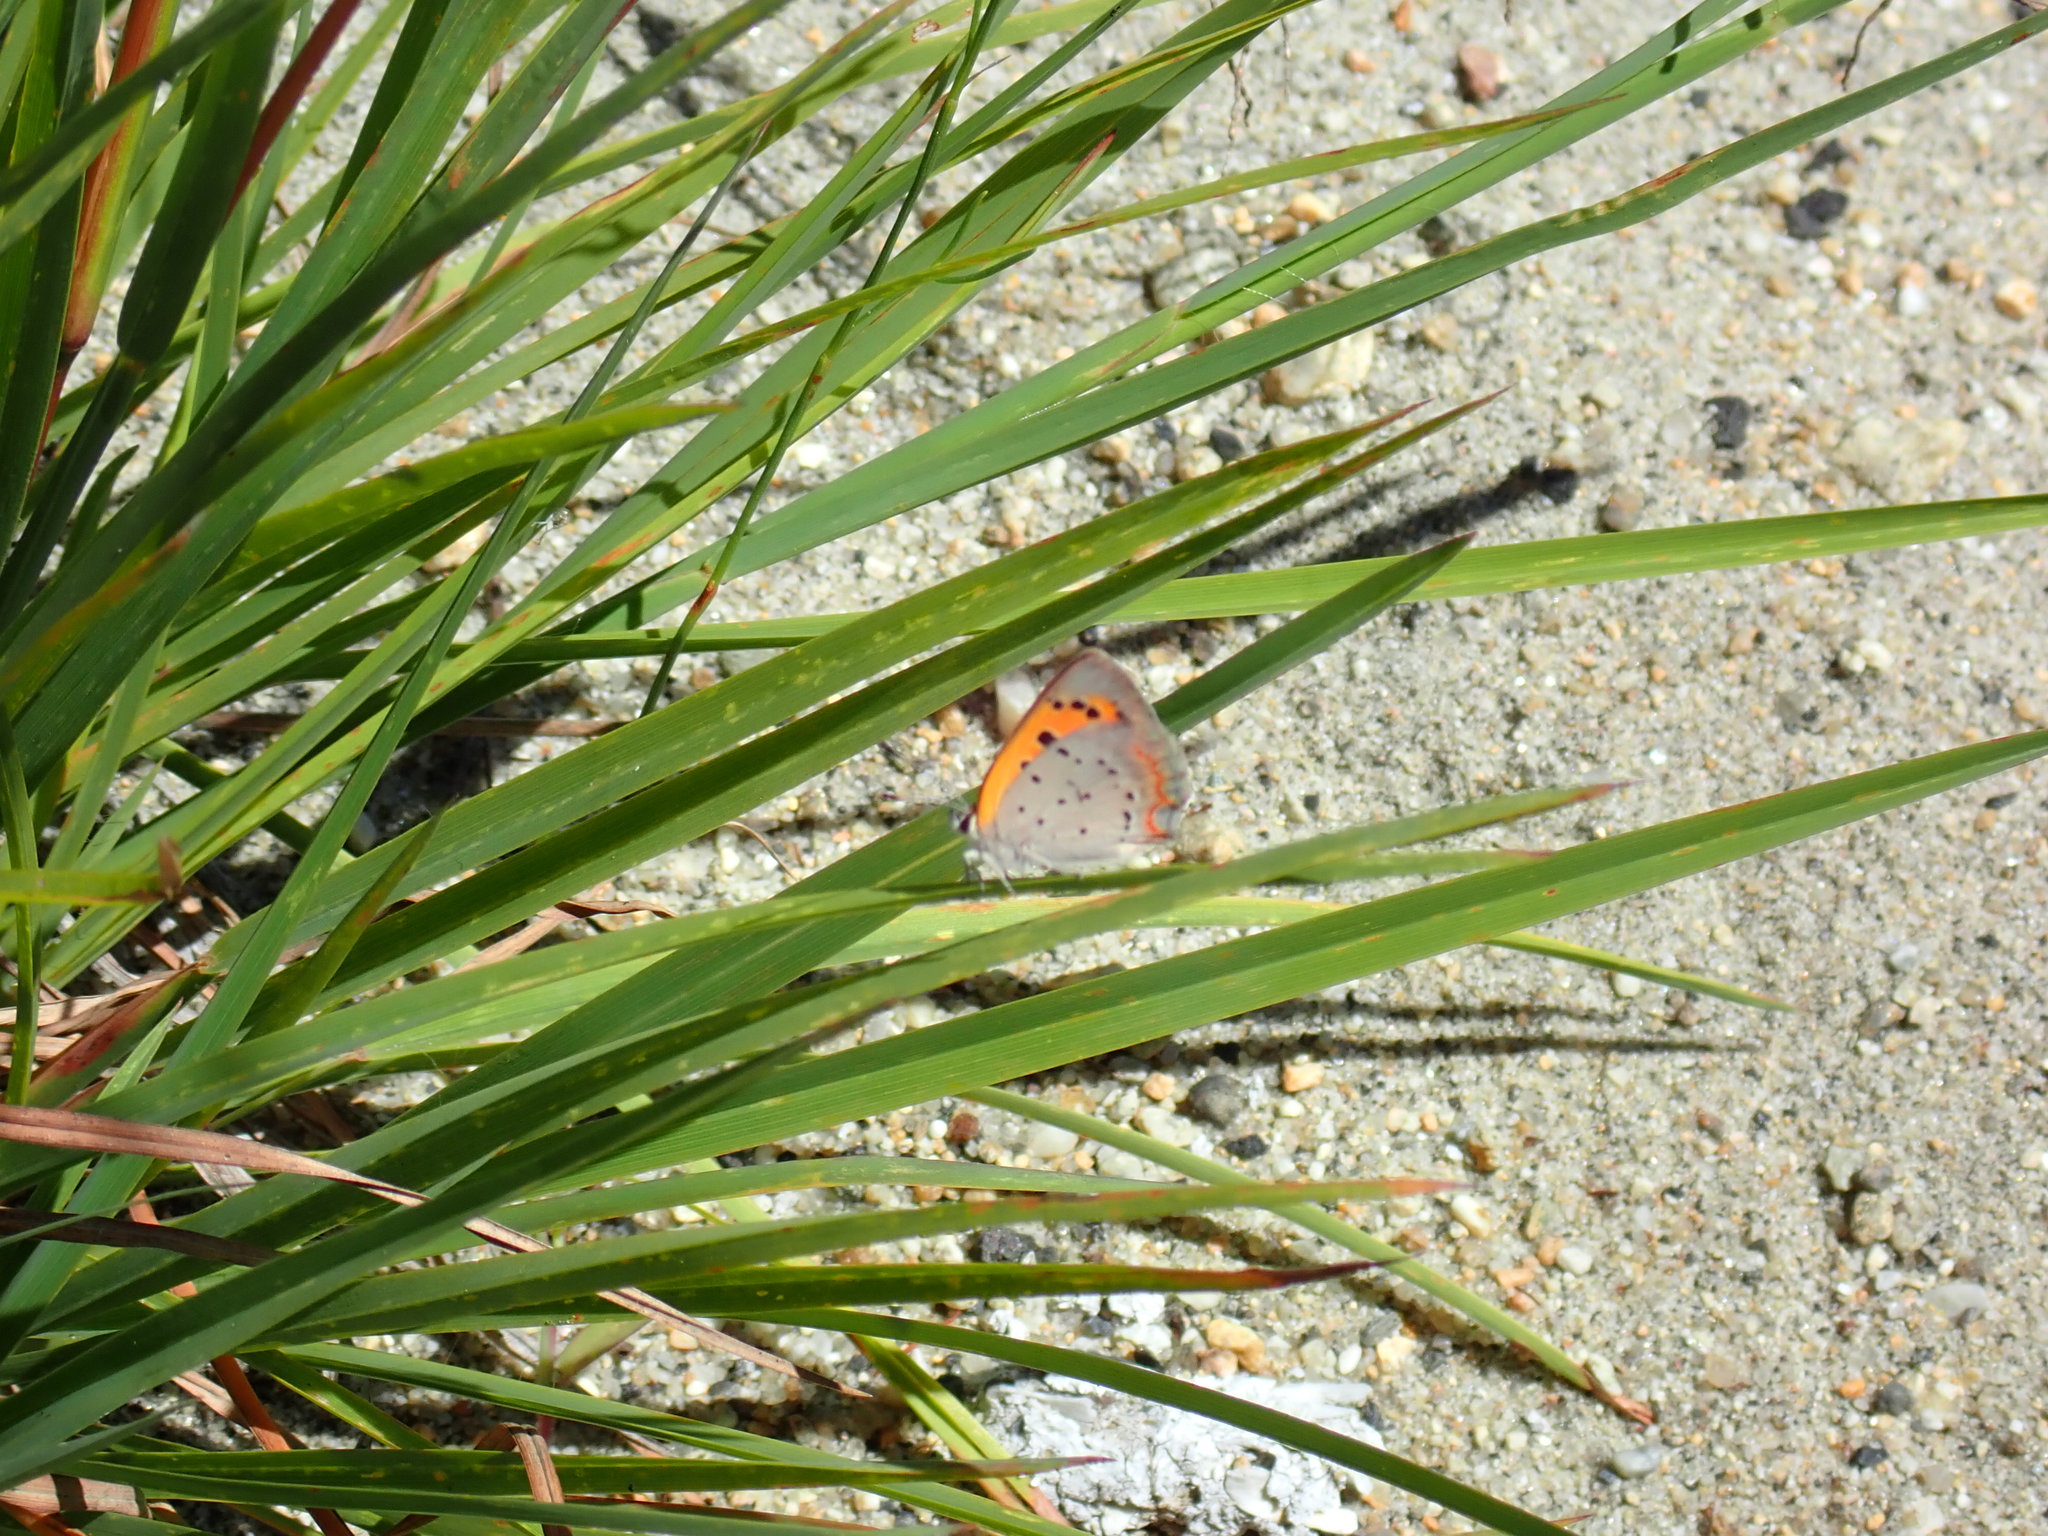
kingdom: Animalia
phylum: Arthropoda
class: Insecta
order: Lepidoptera
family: Lycaenidae
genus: Lycaena
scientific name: Lycaena hypophlaeas
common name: American copper
